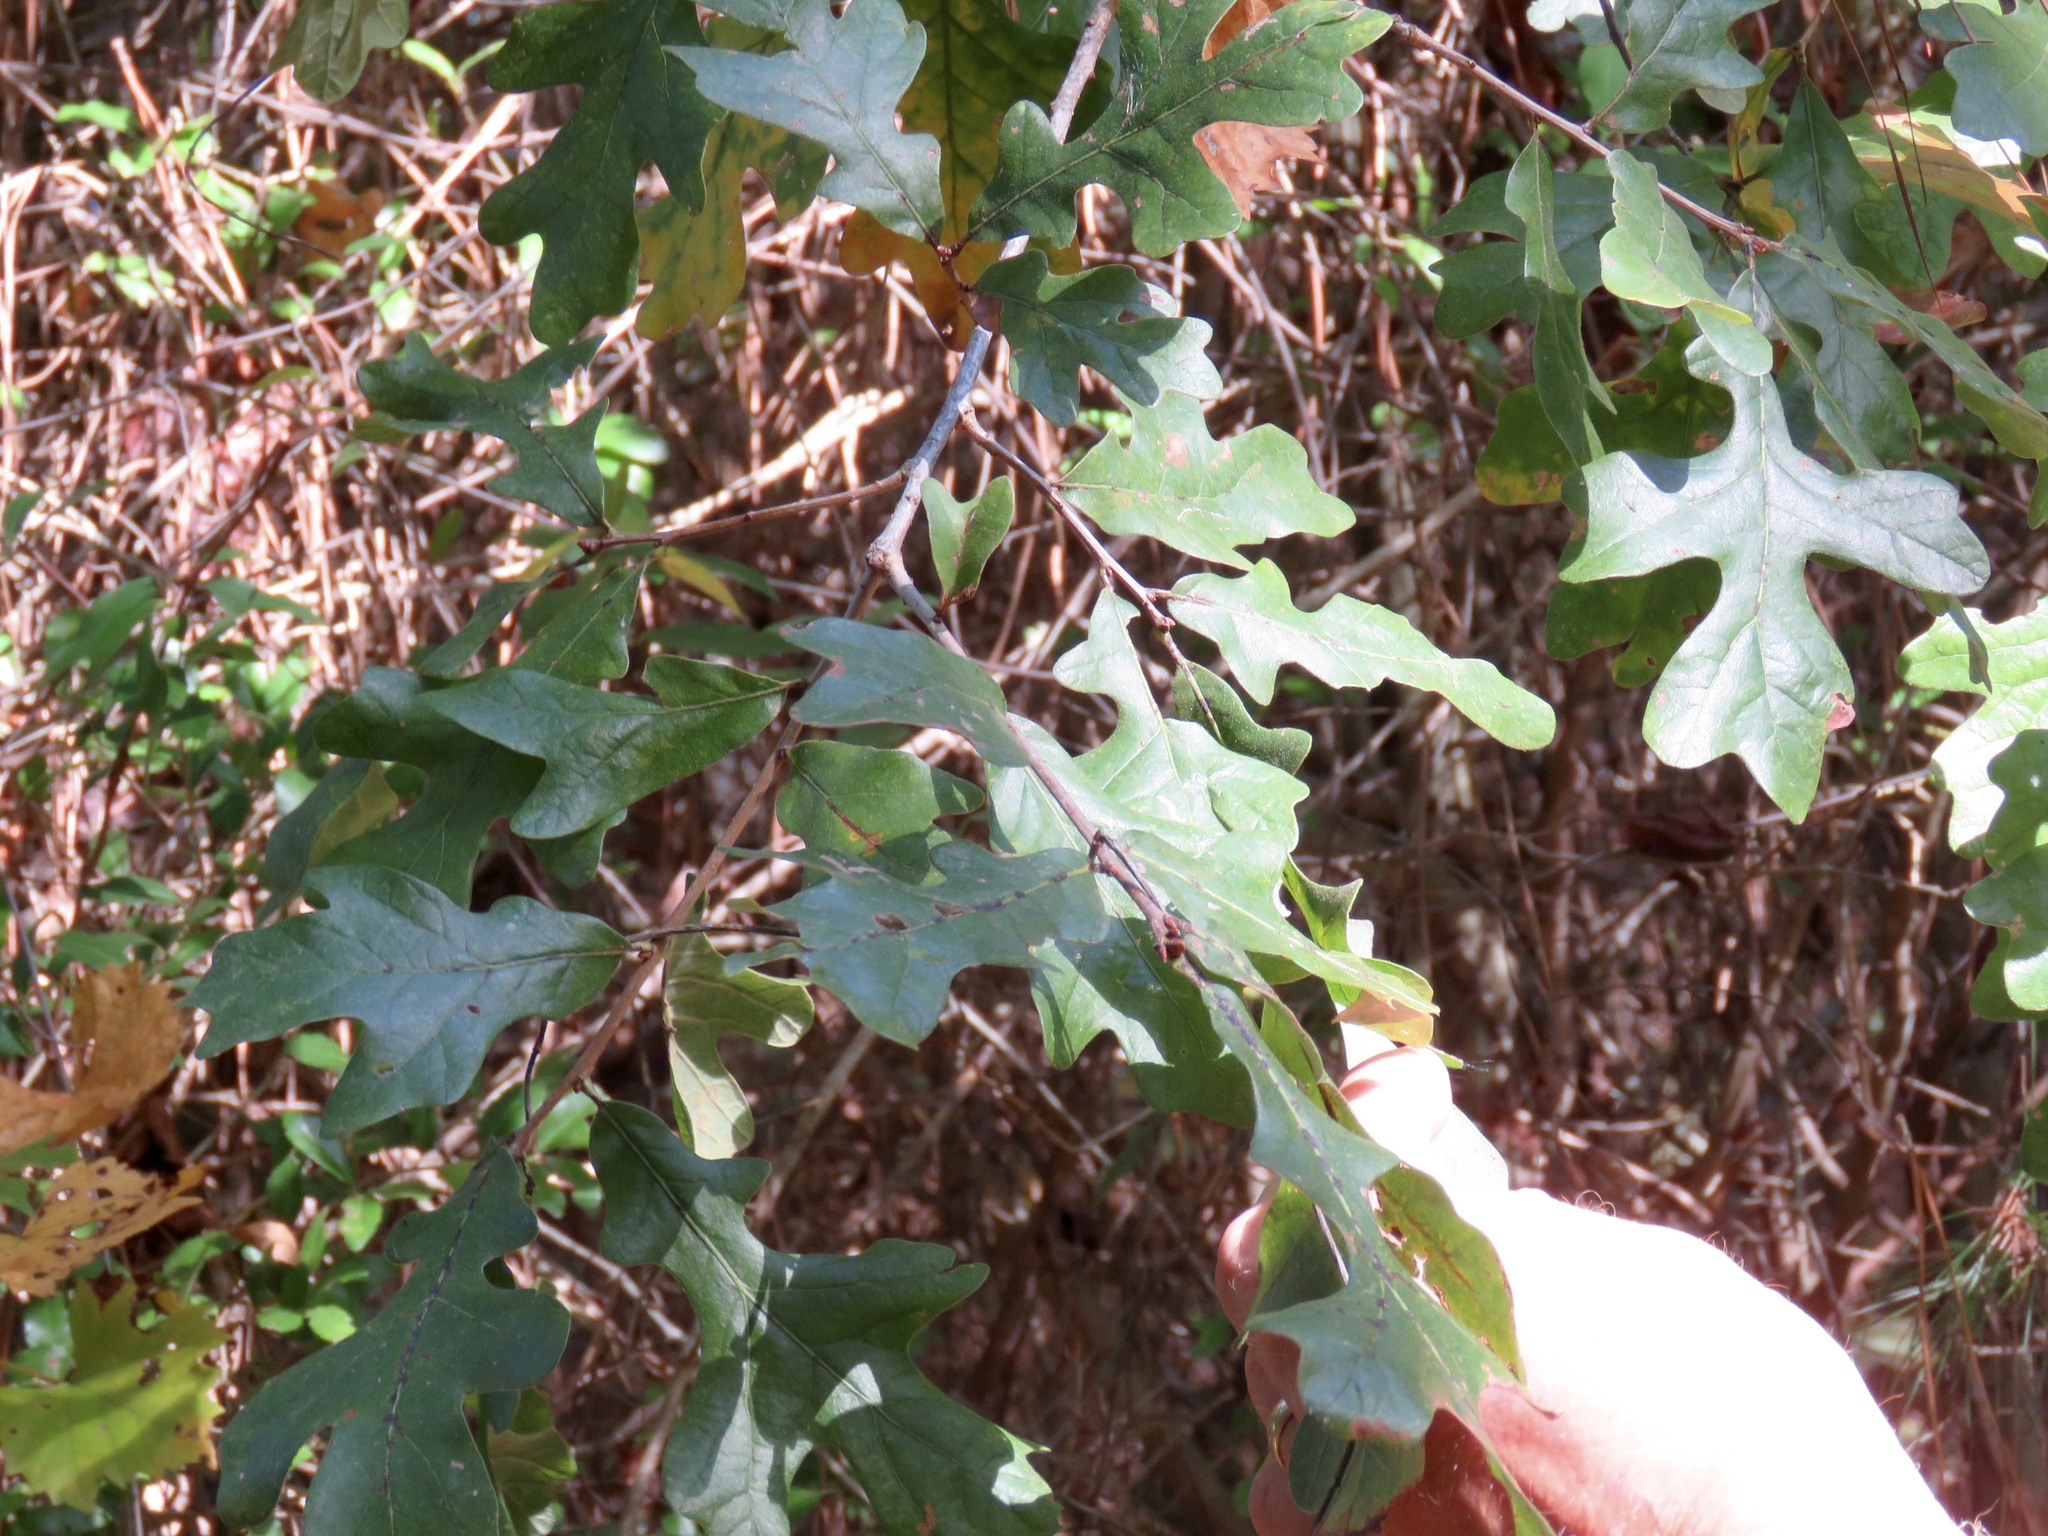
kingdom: Plantae
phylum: Tracheophyta
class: Magnoliopsida
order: Fagales
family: Fagaceae
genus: Quercus
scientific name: Quercus margaretiae
